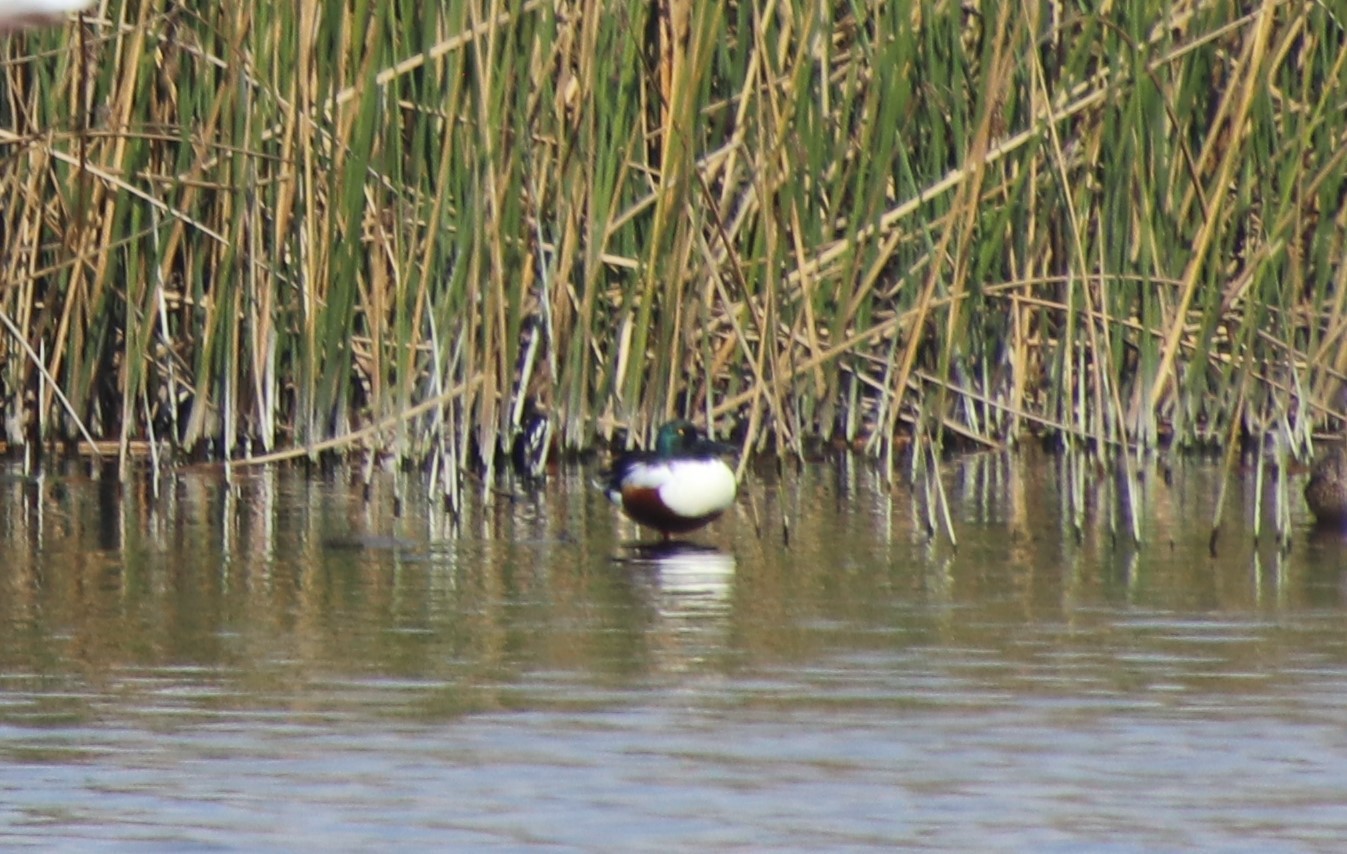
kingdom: Animalia
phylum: Chordata
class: Aves
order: Anseriformes
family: Anatidae
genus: Spatula
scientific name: Spatula clypeata
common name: Northern shoveler
